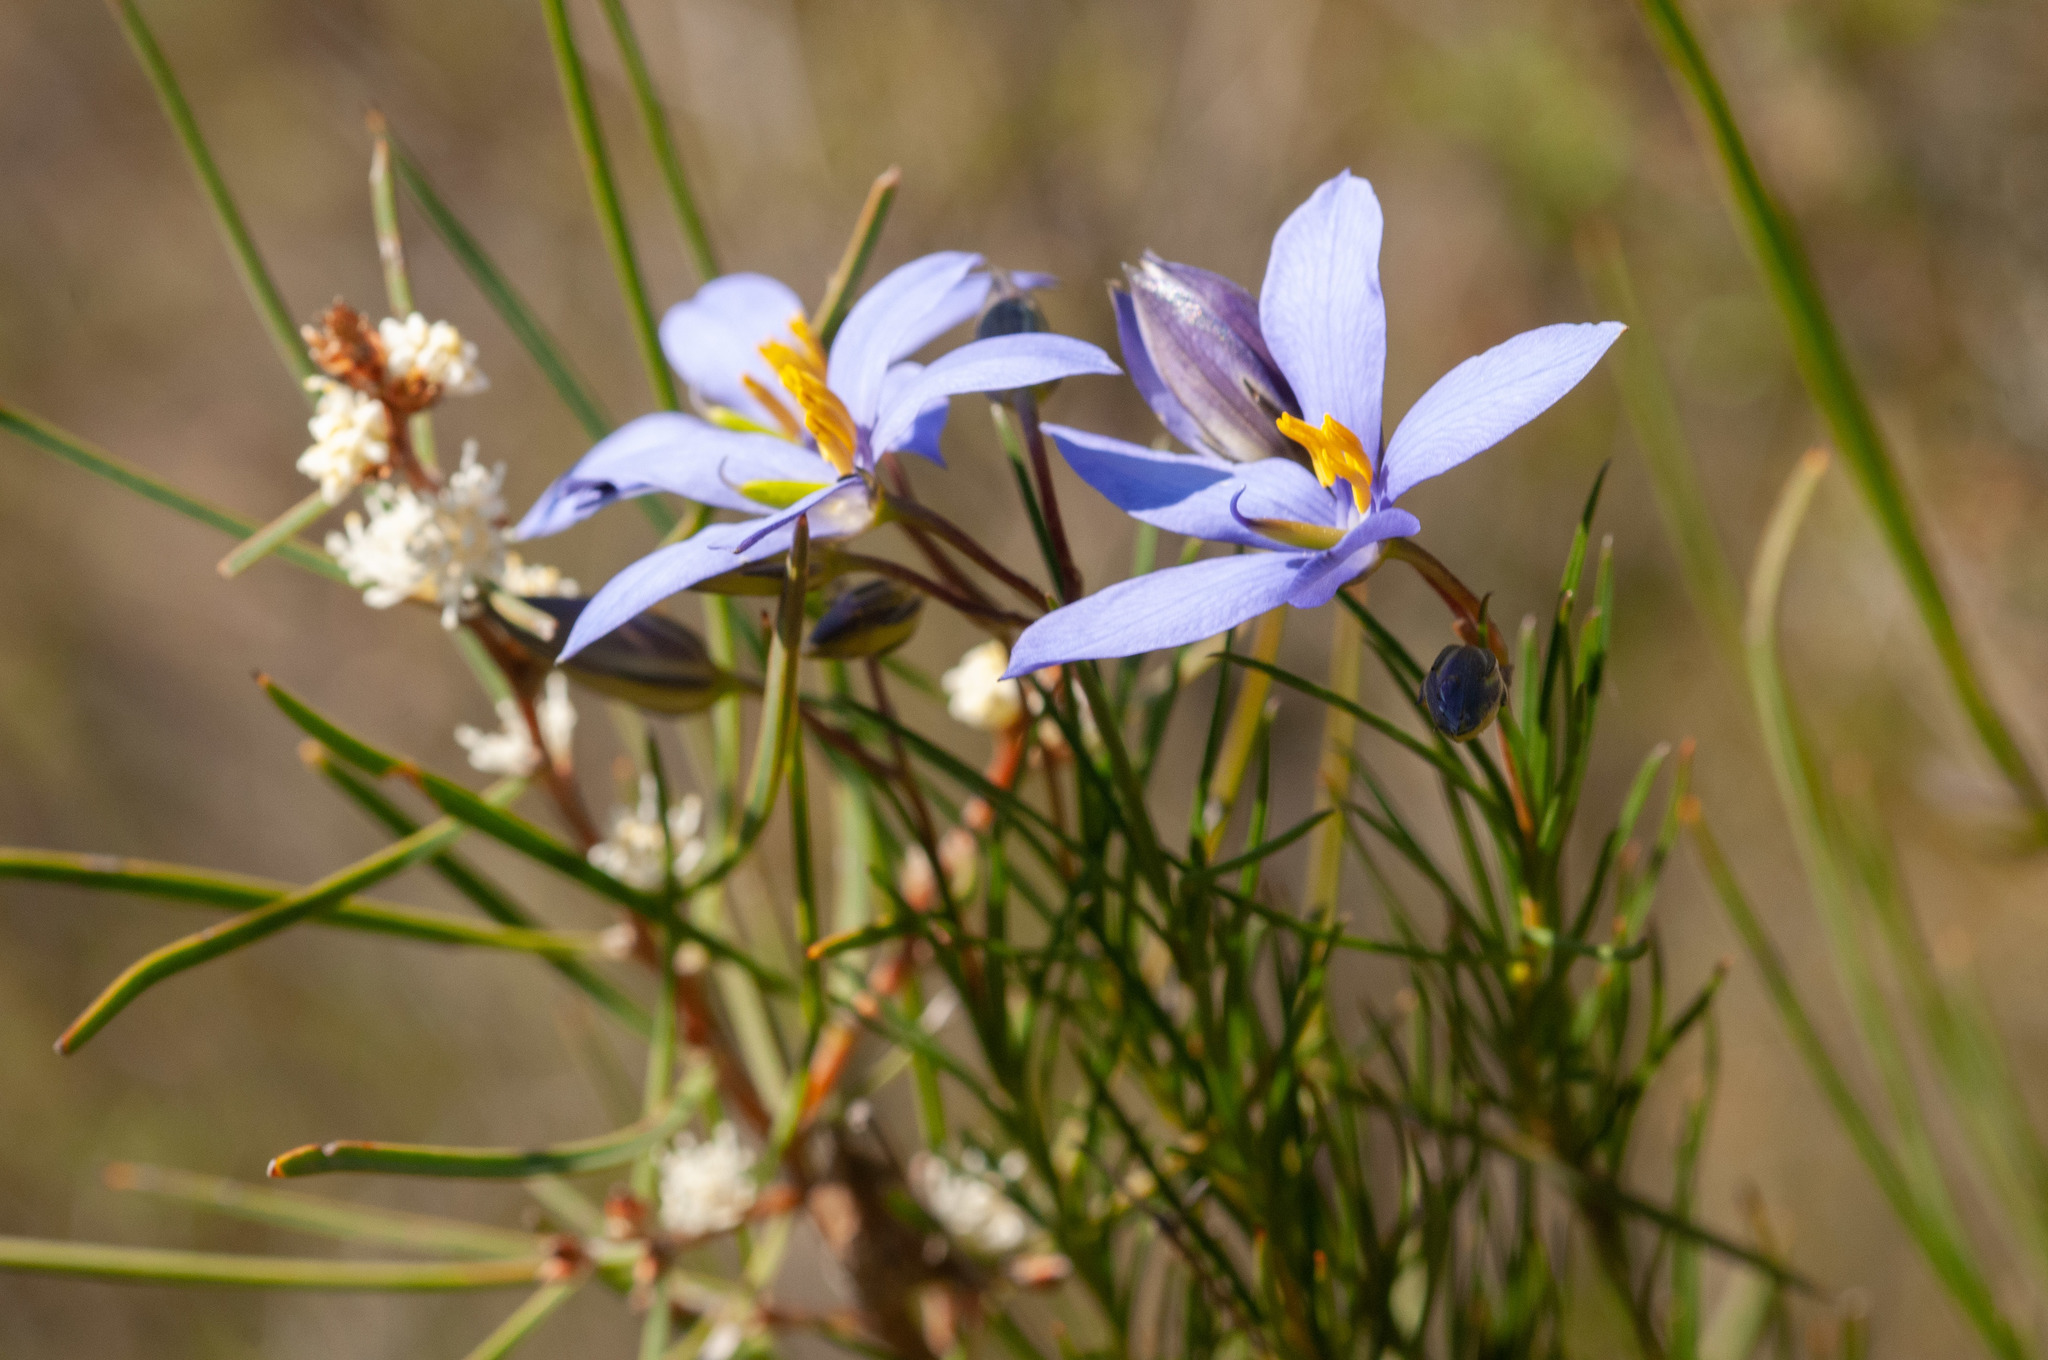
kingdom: Plantae
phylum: Tracheophyta
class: Magnoliopsida
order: Apiales
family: Pittosporaceae
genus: Cheiranthera
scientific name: Cheiranthera alternifolia
